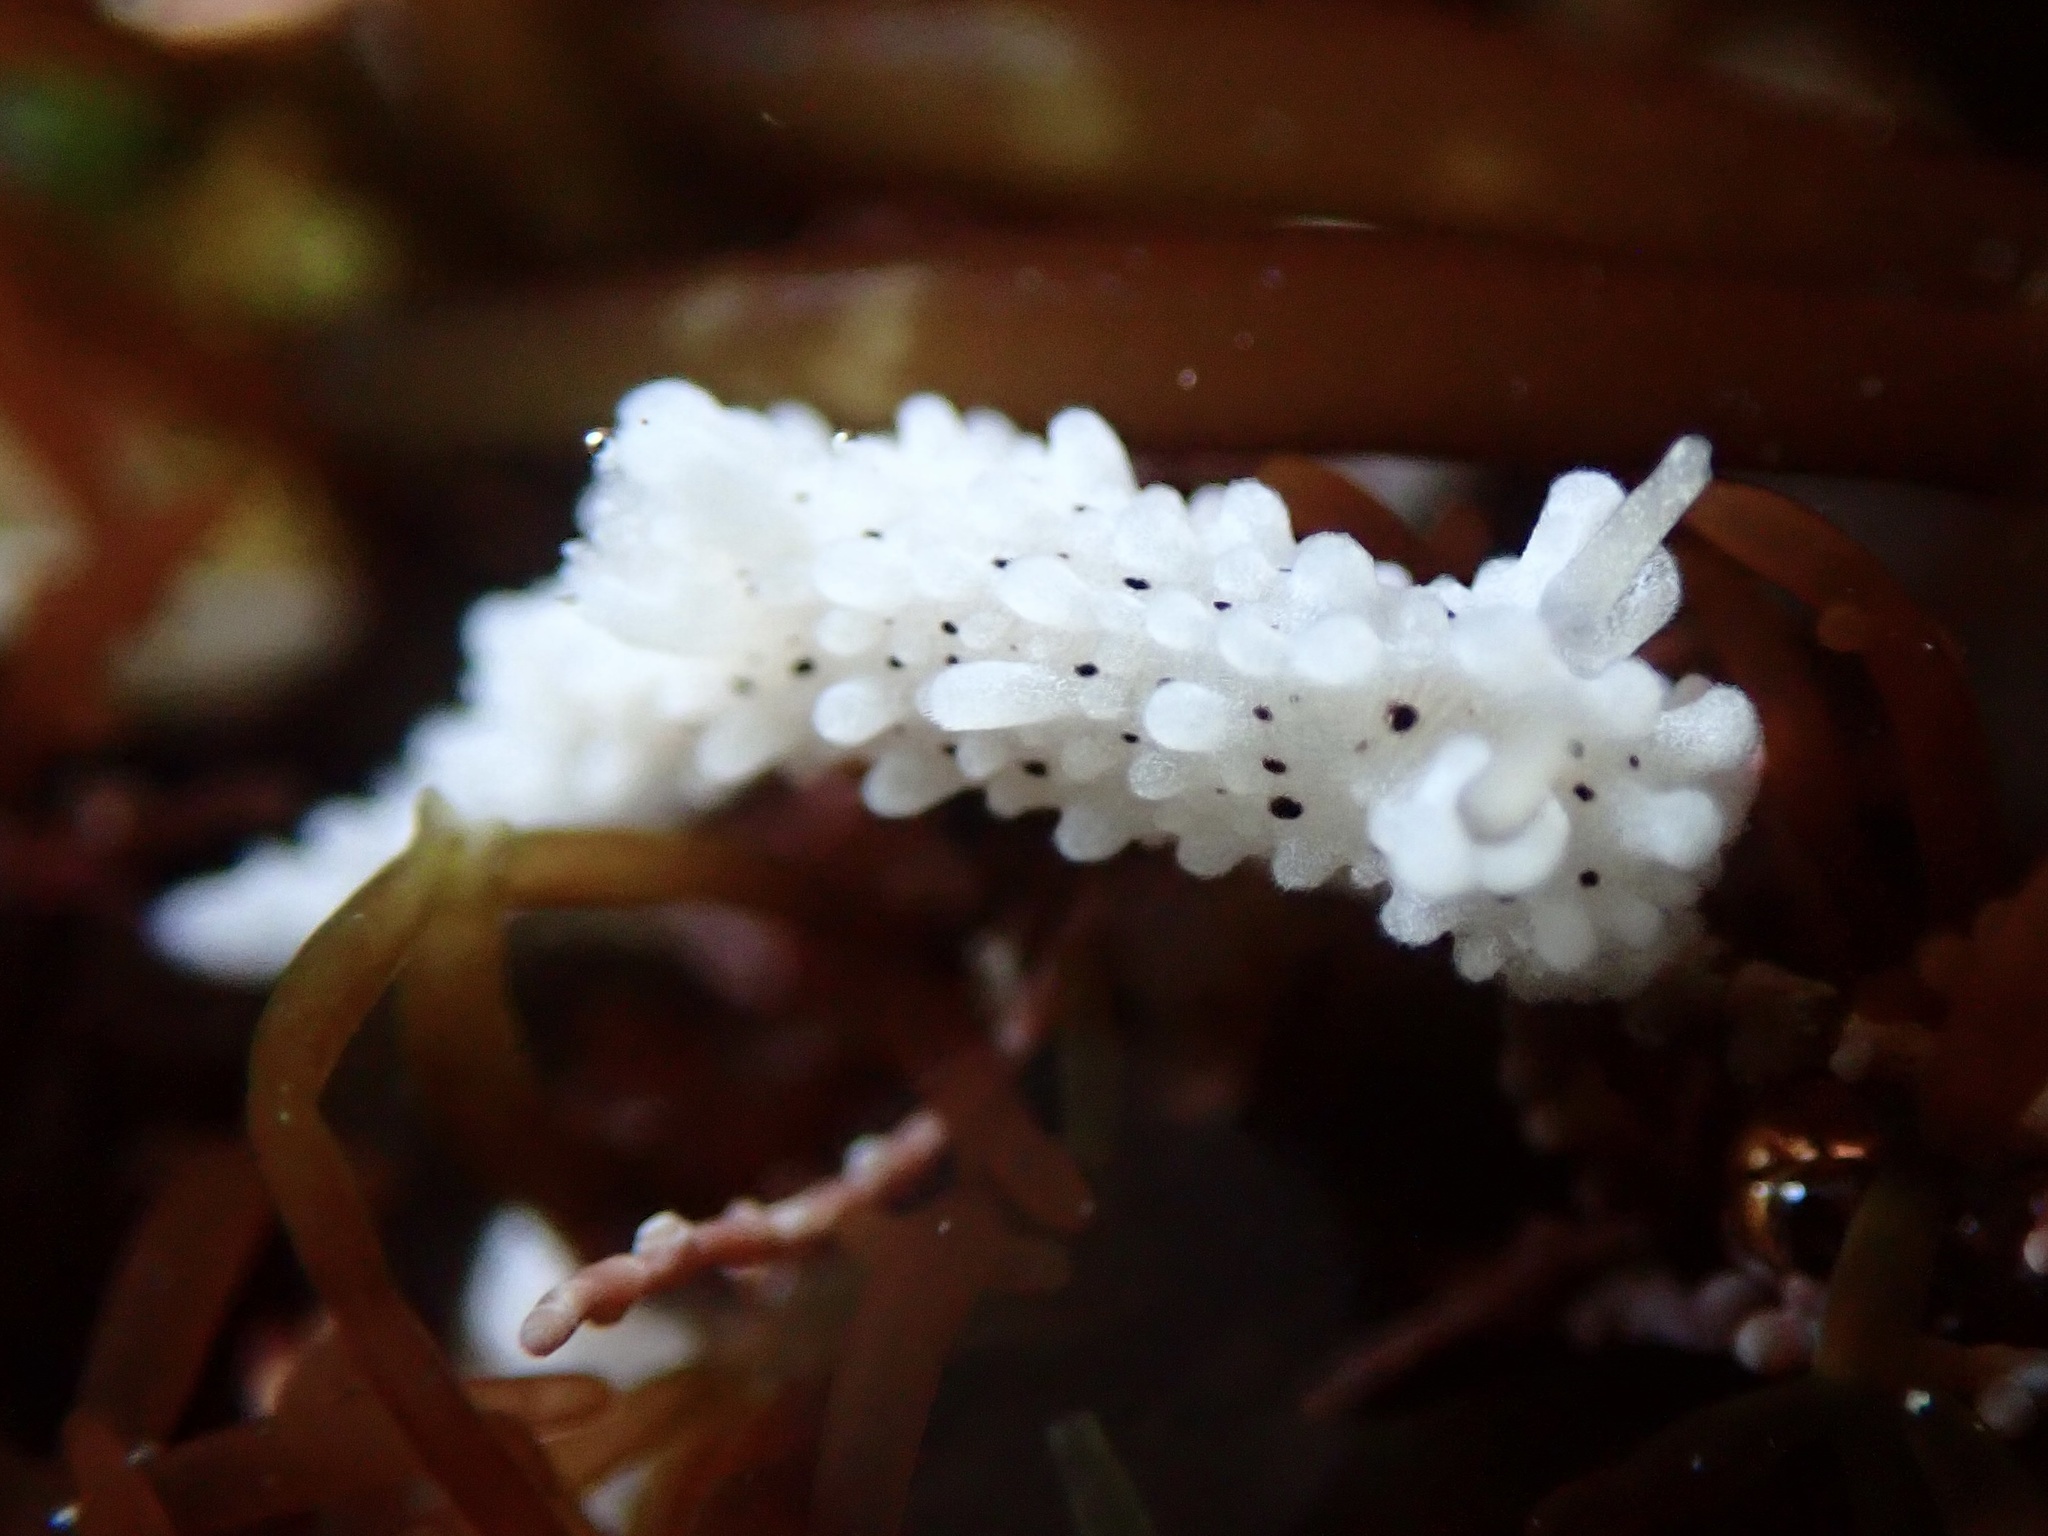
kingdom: Animalia
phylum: Mollusca
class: Gastropoda
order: Nudibranchia
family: Aegiridae
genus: Aegires
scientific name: Aegires albopunctatus
